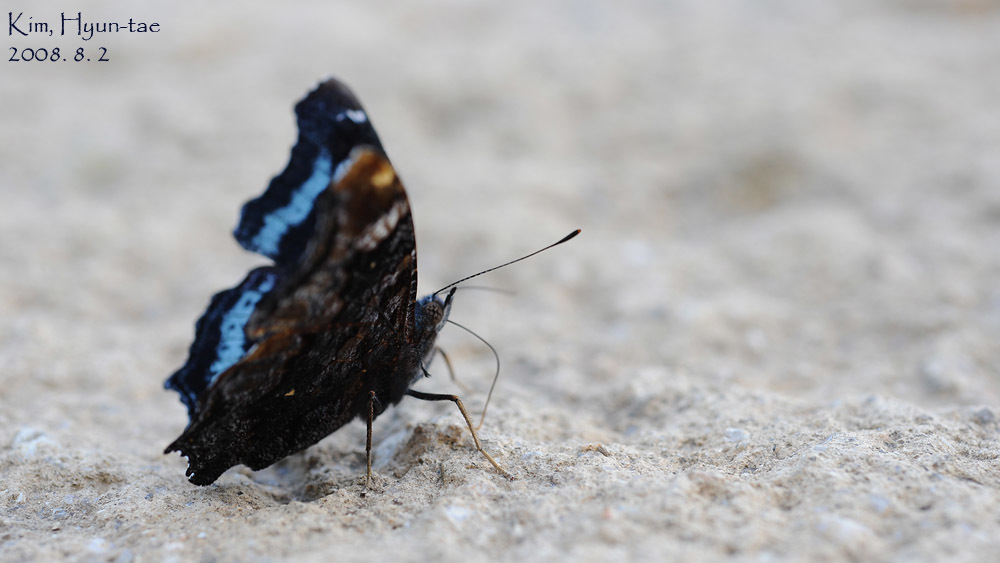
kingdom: Animalia
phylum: Arthropoda
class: Insecta
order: Lepidoptera
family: Nymphalidae
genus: Vanessa
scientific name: Vanessa Kaniska canace
